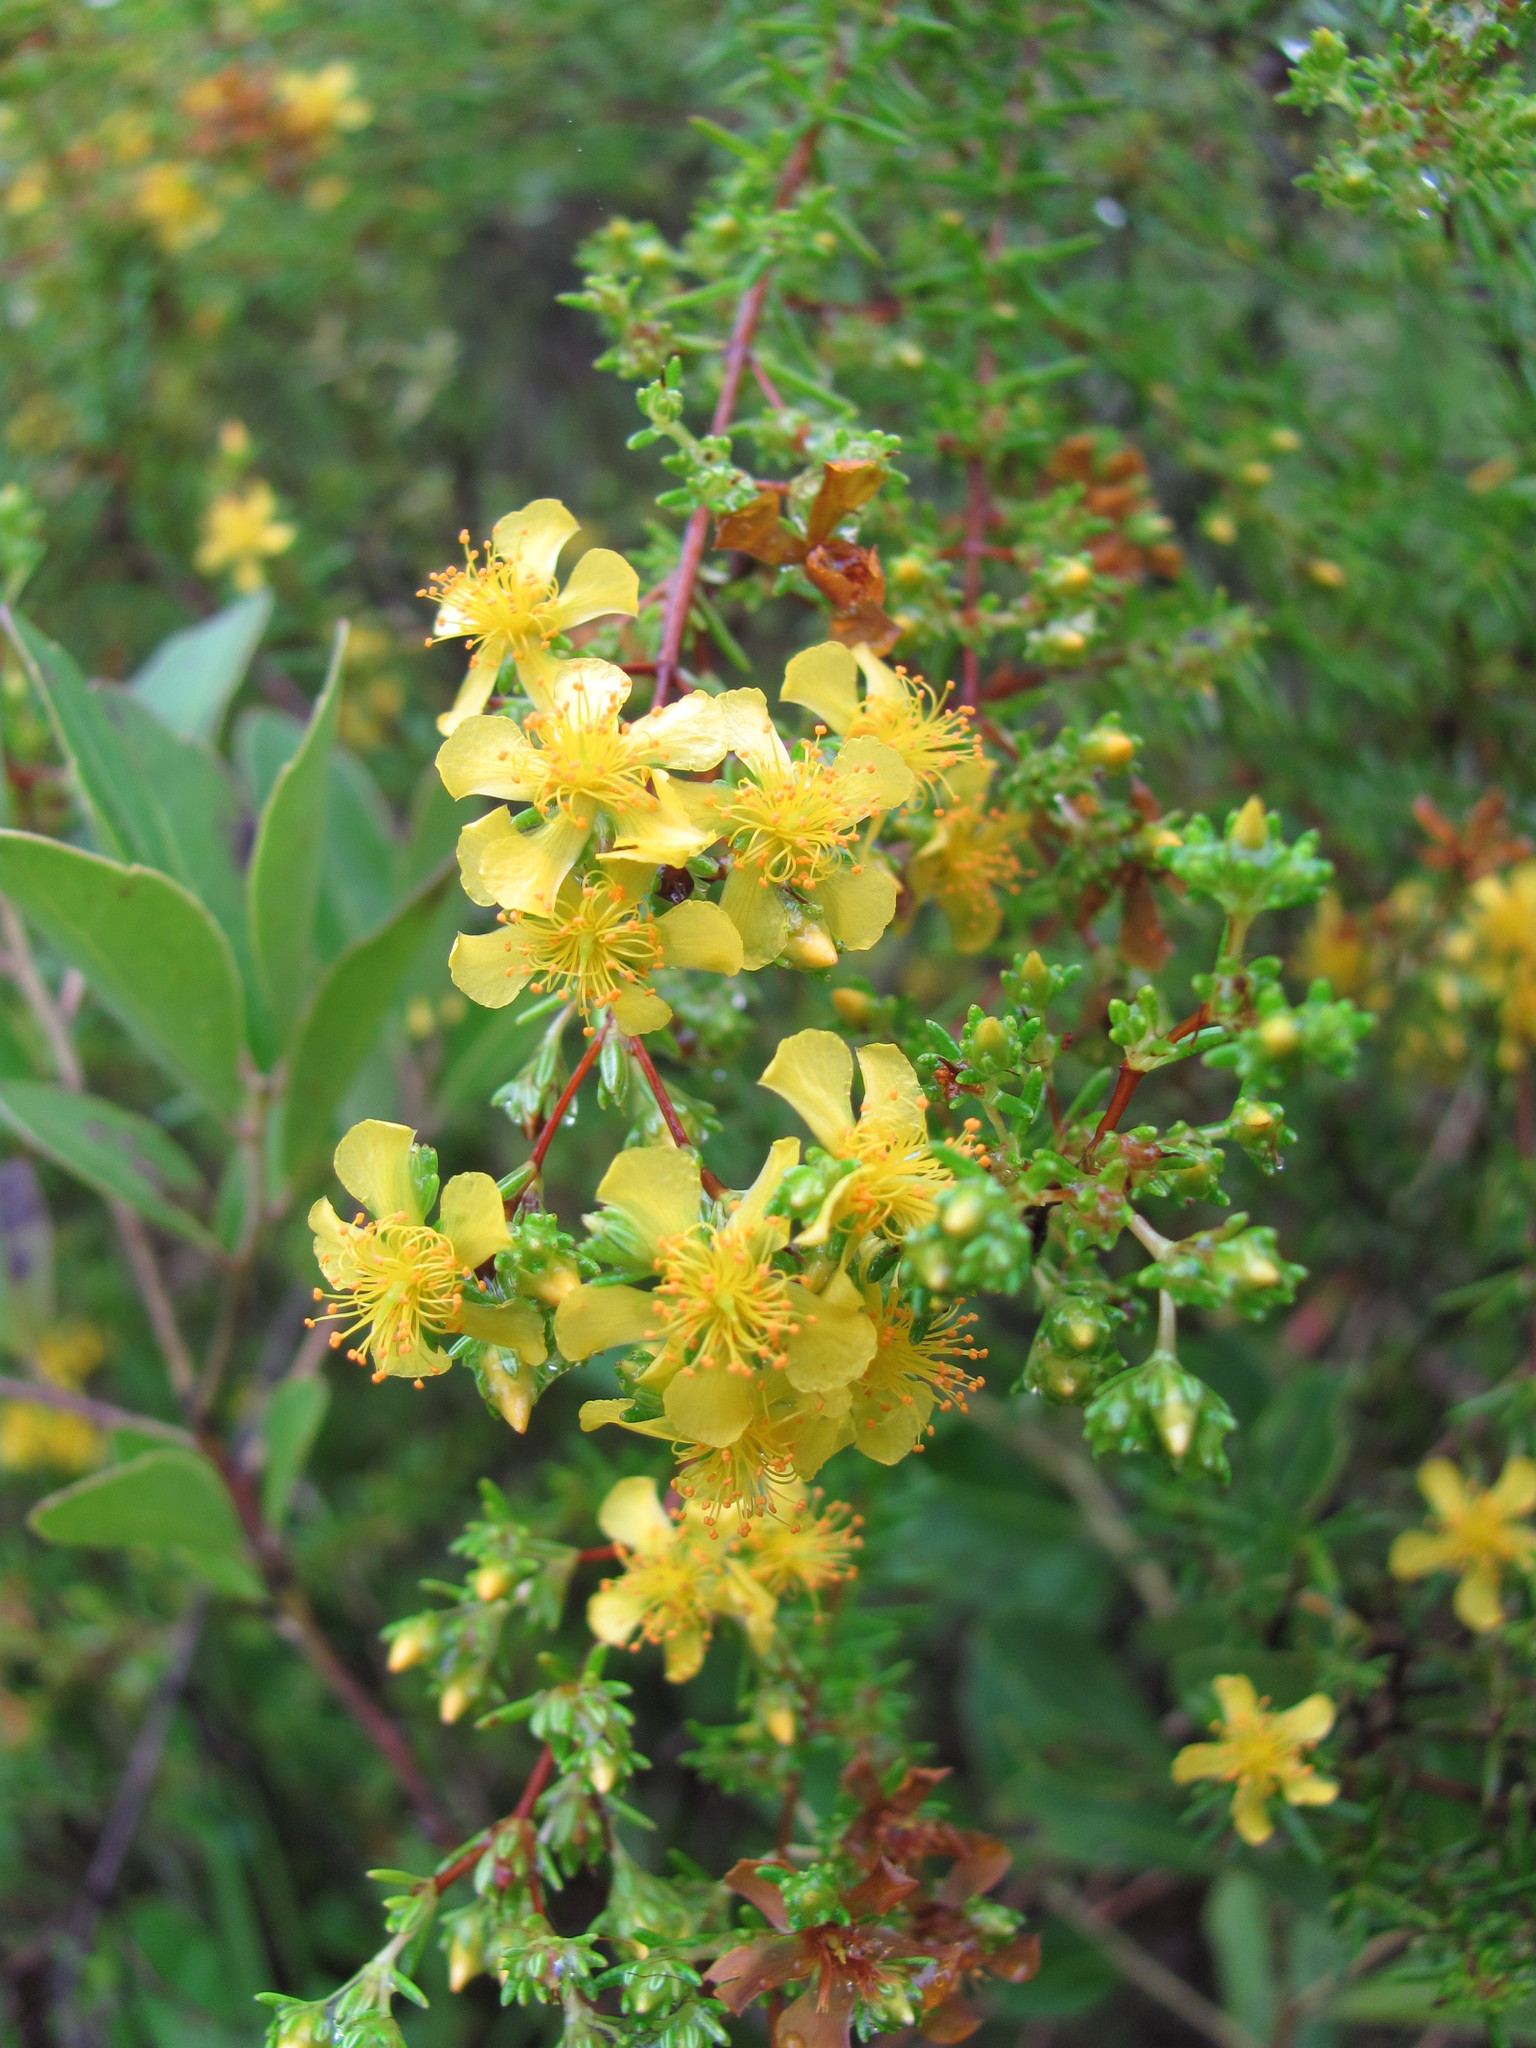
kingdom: Plantae
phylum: Tracheophyta
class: Magnoliopsida
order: Malpighiales
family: Hypericaceae
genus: Hypericum
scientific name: Hypericum brachyphyllum
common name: Coastal plain st. john's-wort
